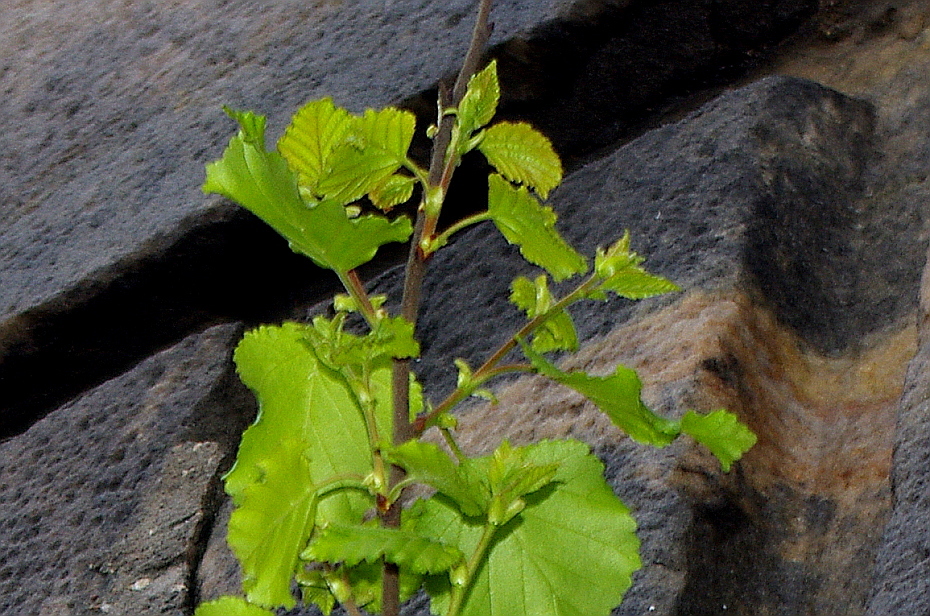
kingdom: Plantae
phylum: Tracheophyta
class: Magnoliopsida
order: Fagales
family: Betulaceae
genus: Betula
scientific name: Betula pubescens
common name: Downy birch
